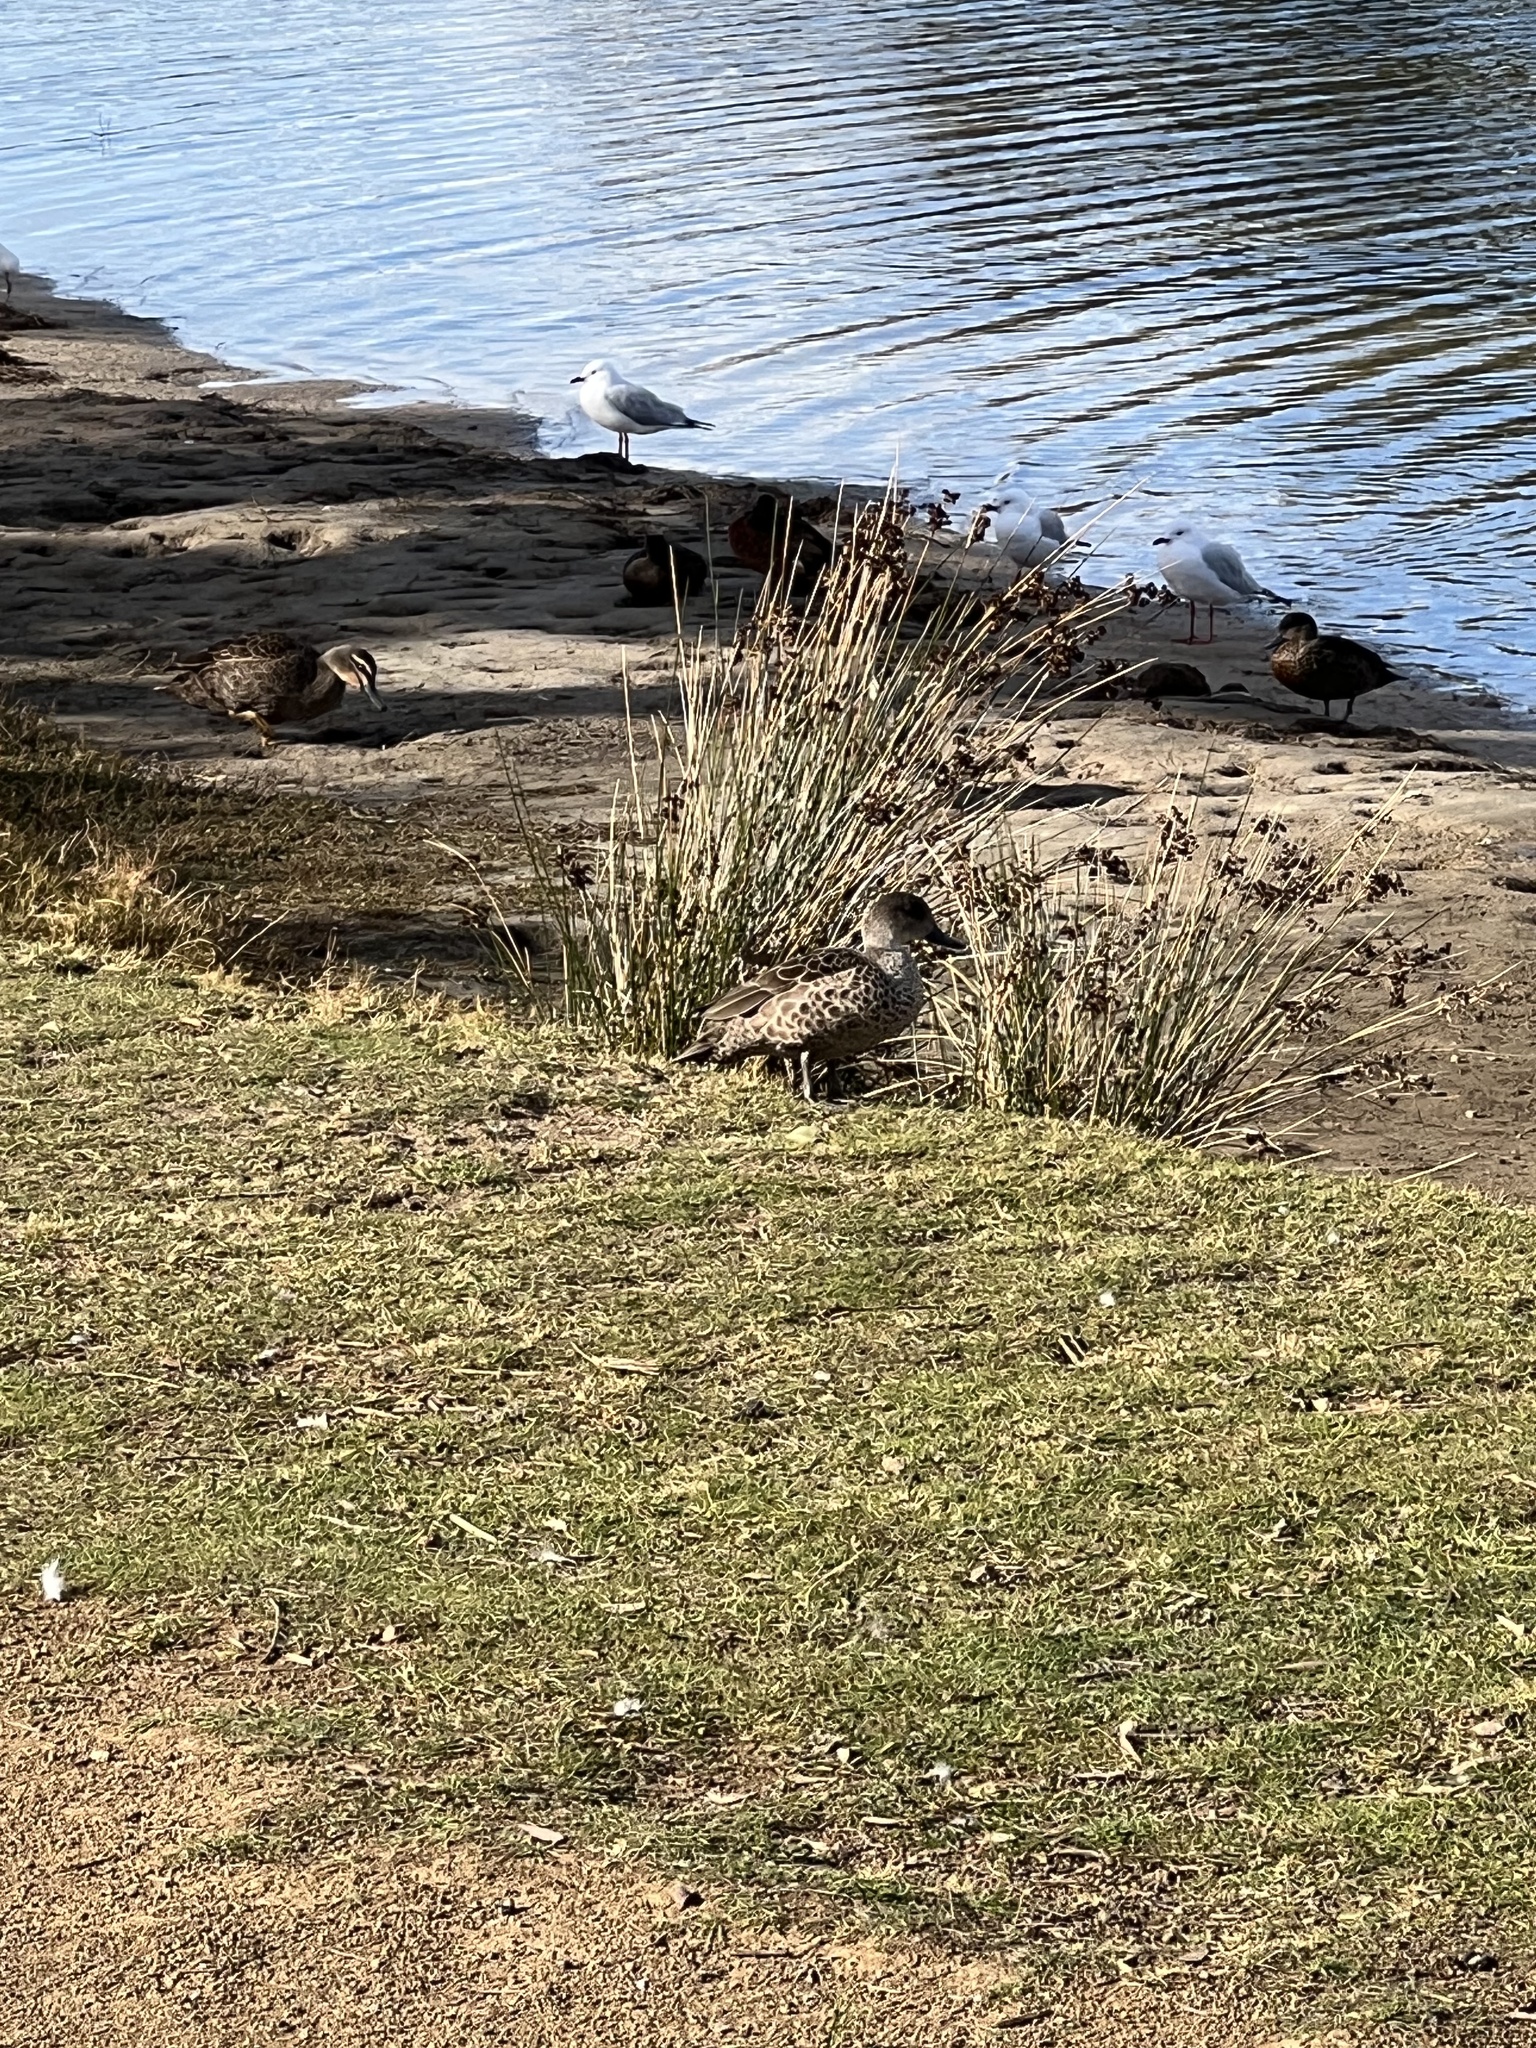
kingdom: Animalia
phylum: Chordata
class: Aves
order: Anseriformes
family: Anatidae
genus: Anas
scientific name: Anas gracilis
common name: Grey teal
